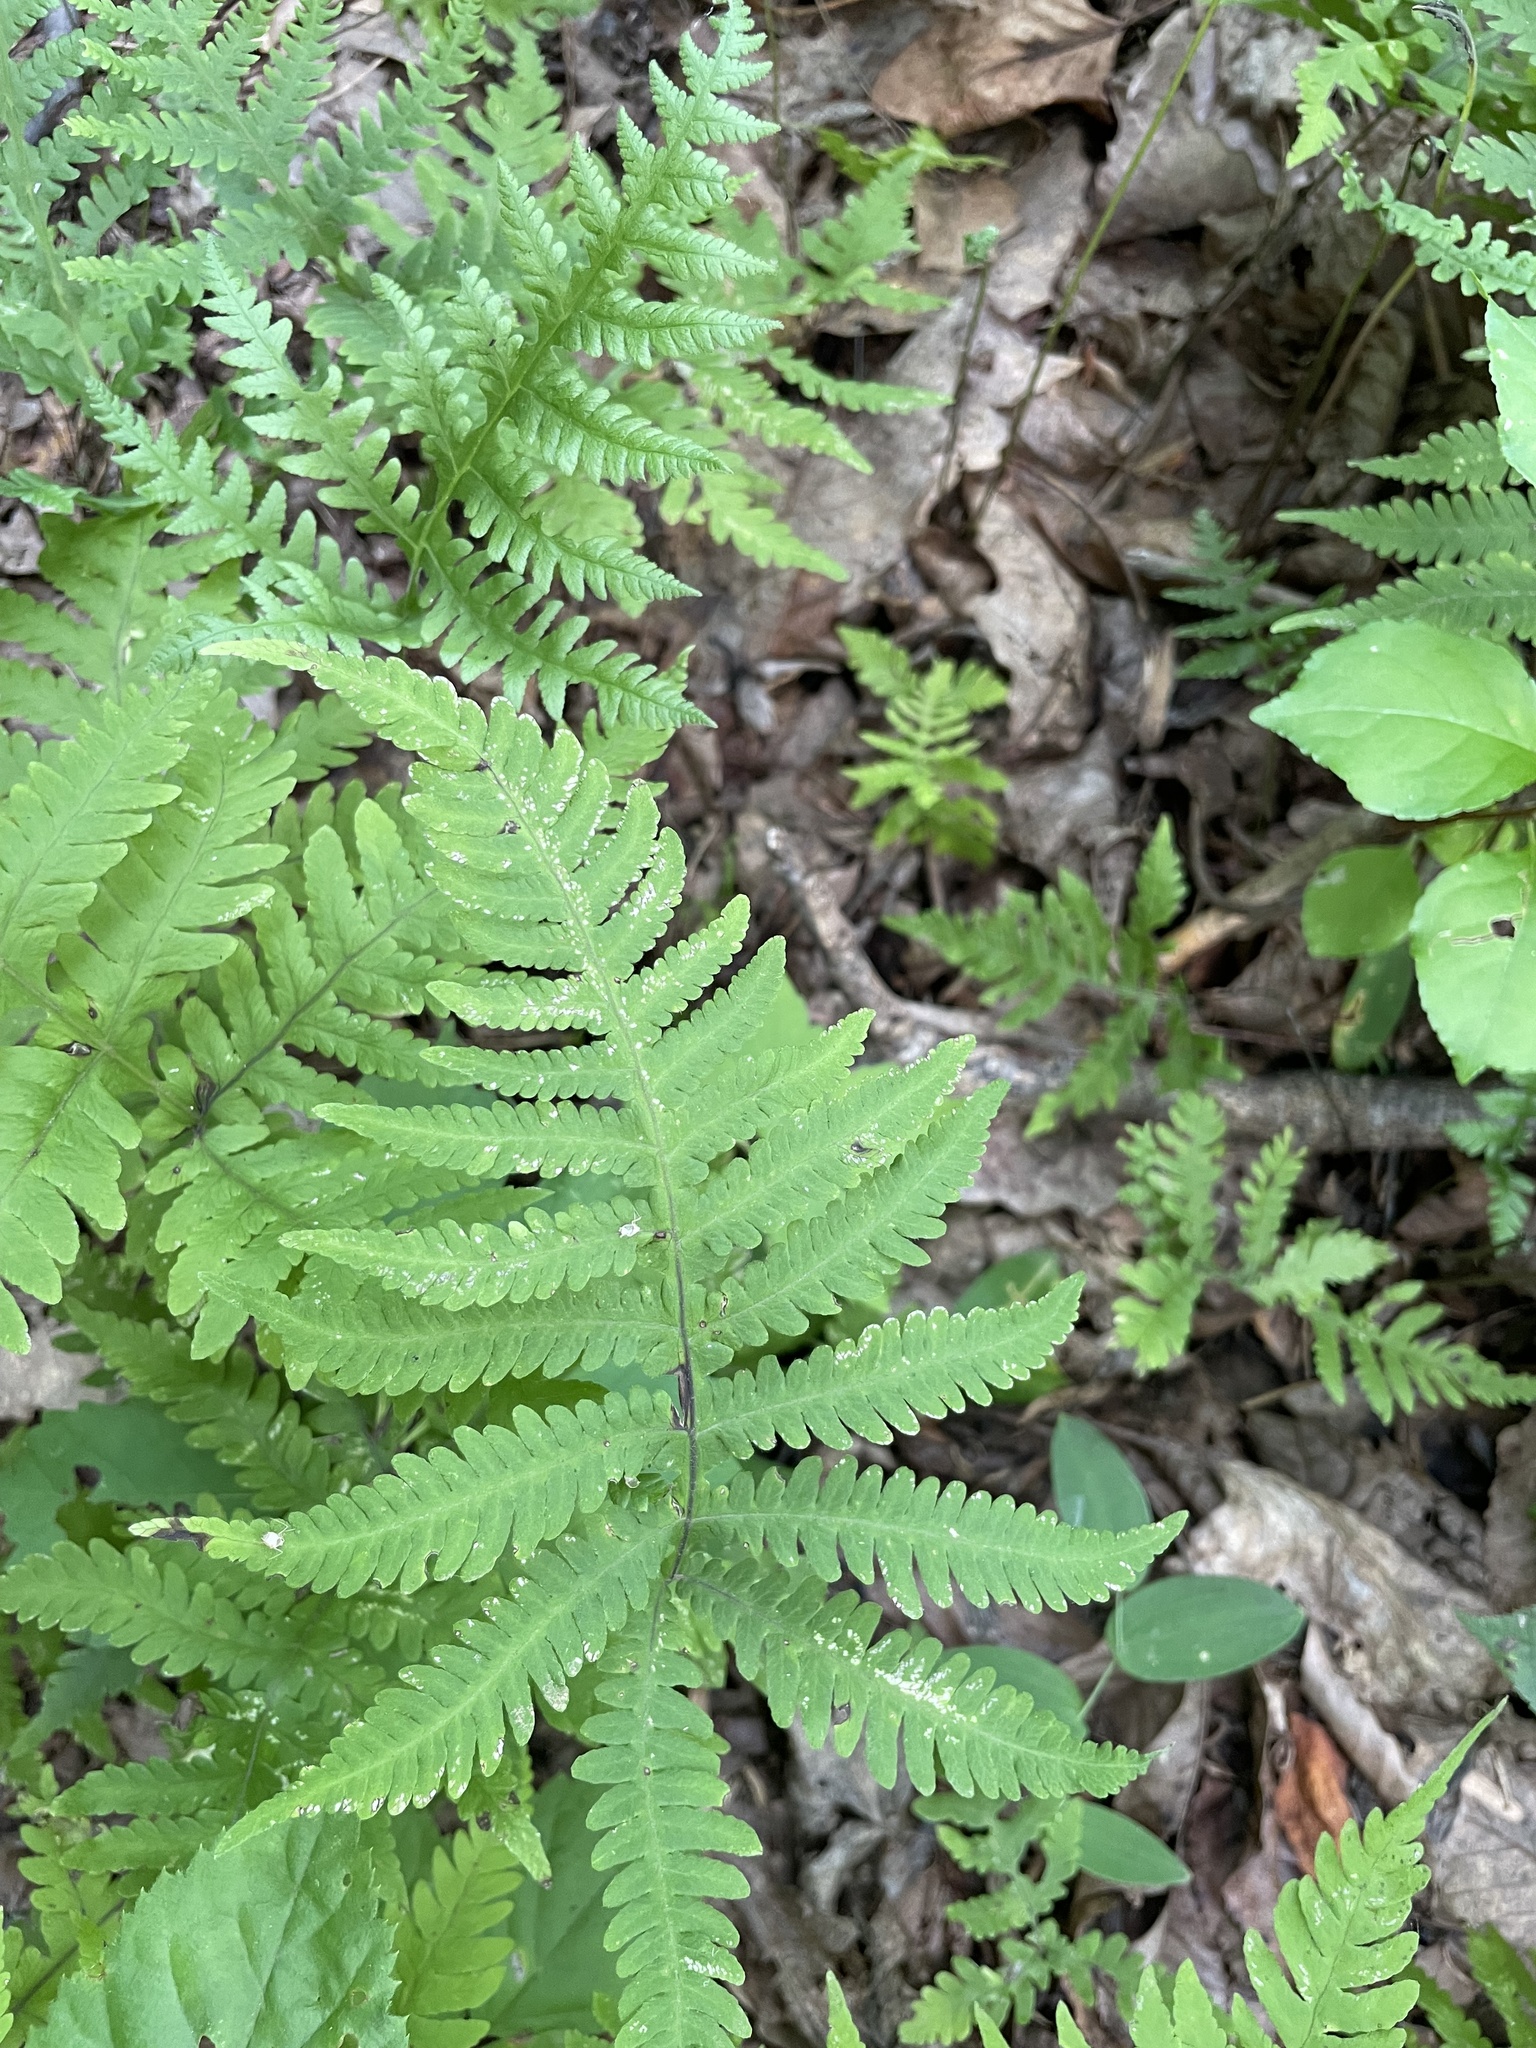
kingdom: Plantae
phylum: Tracheophyta
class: Polypodiopsida
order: Polypodiales
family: Thelypteridaceae
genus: Phegopteris
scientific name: Phegopteris hexagonoptera
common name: Broad beech fern
